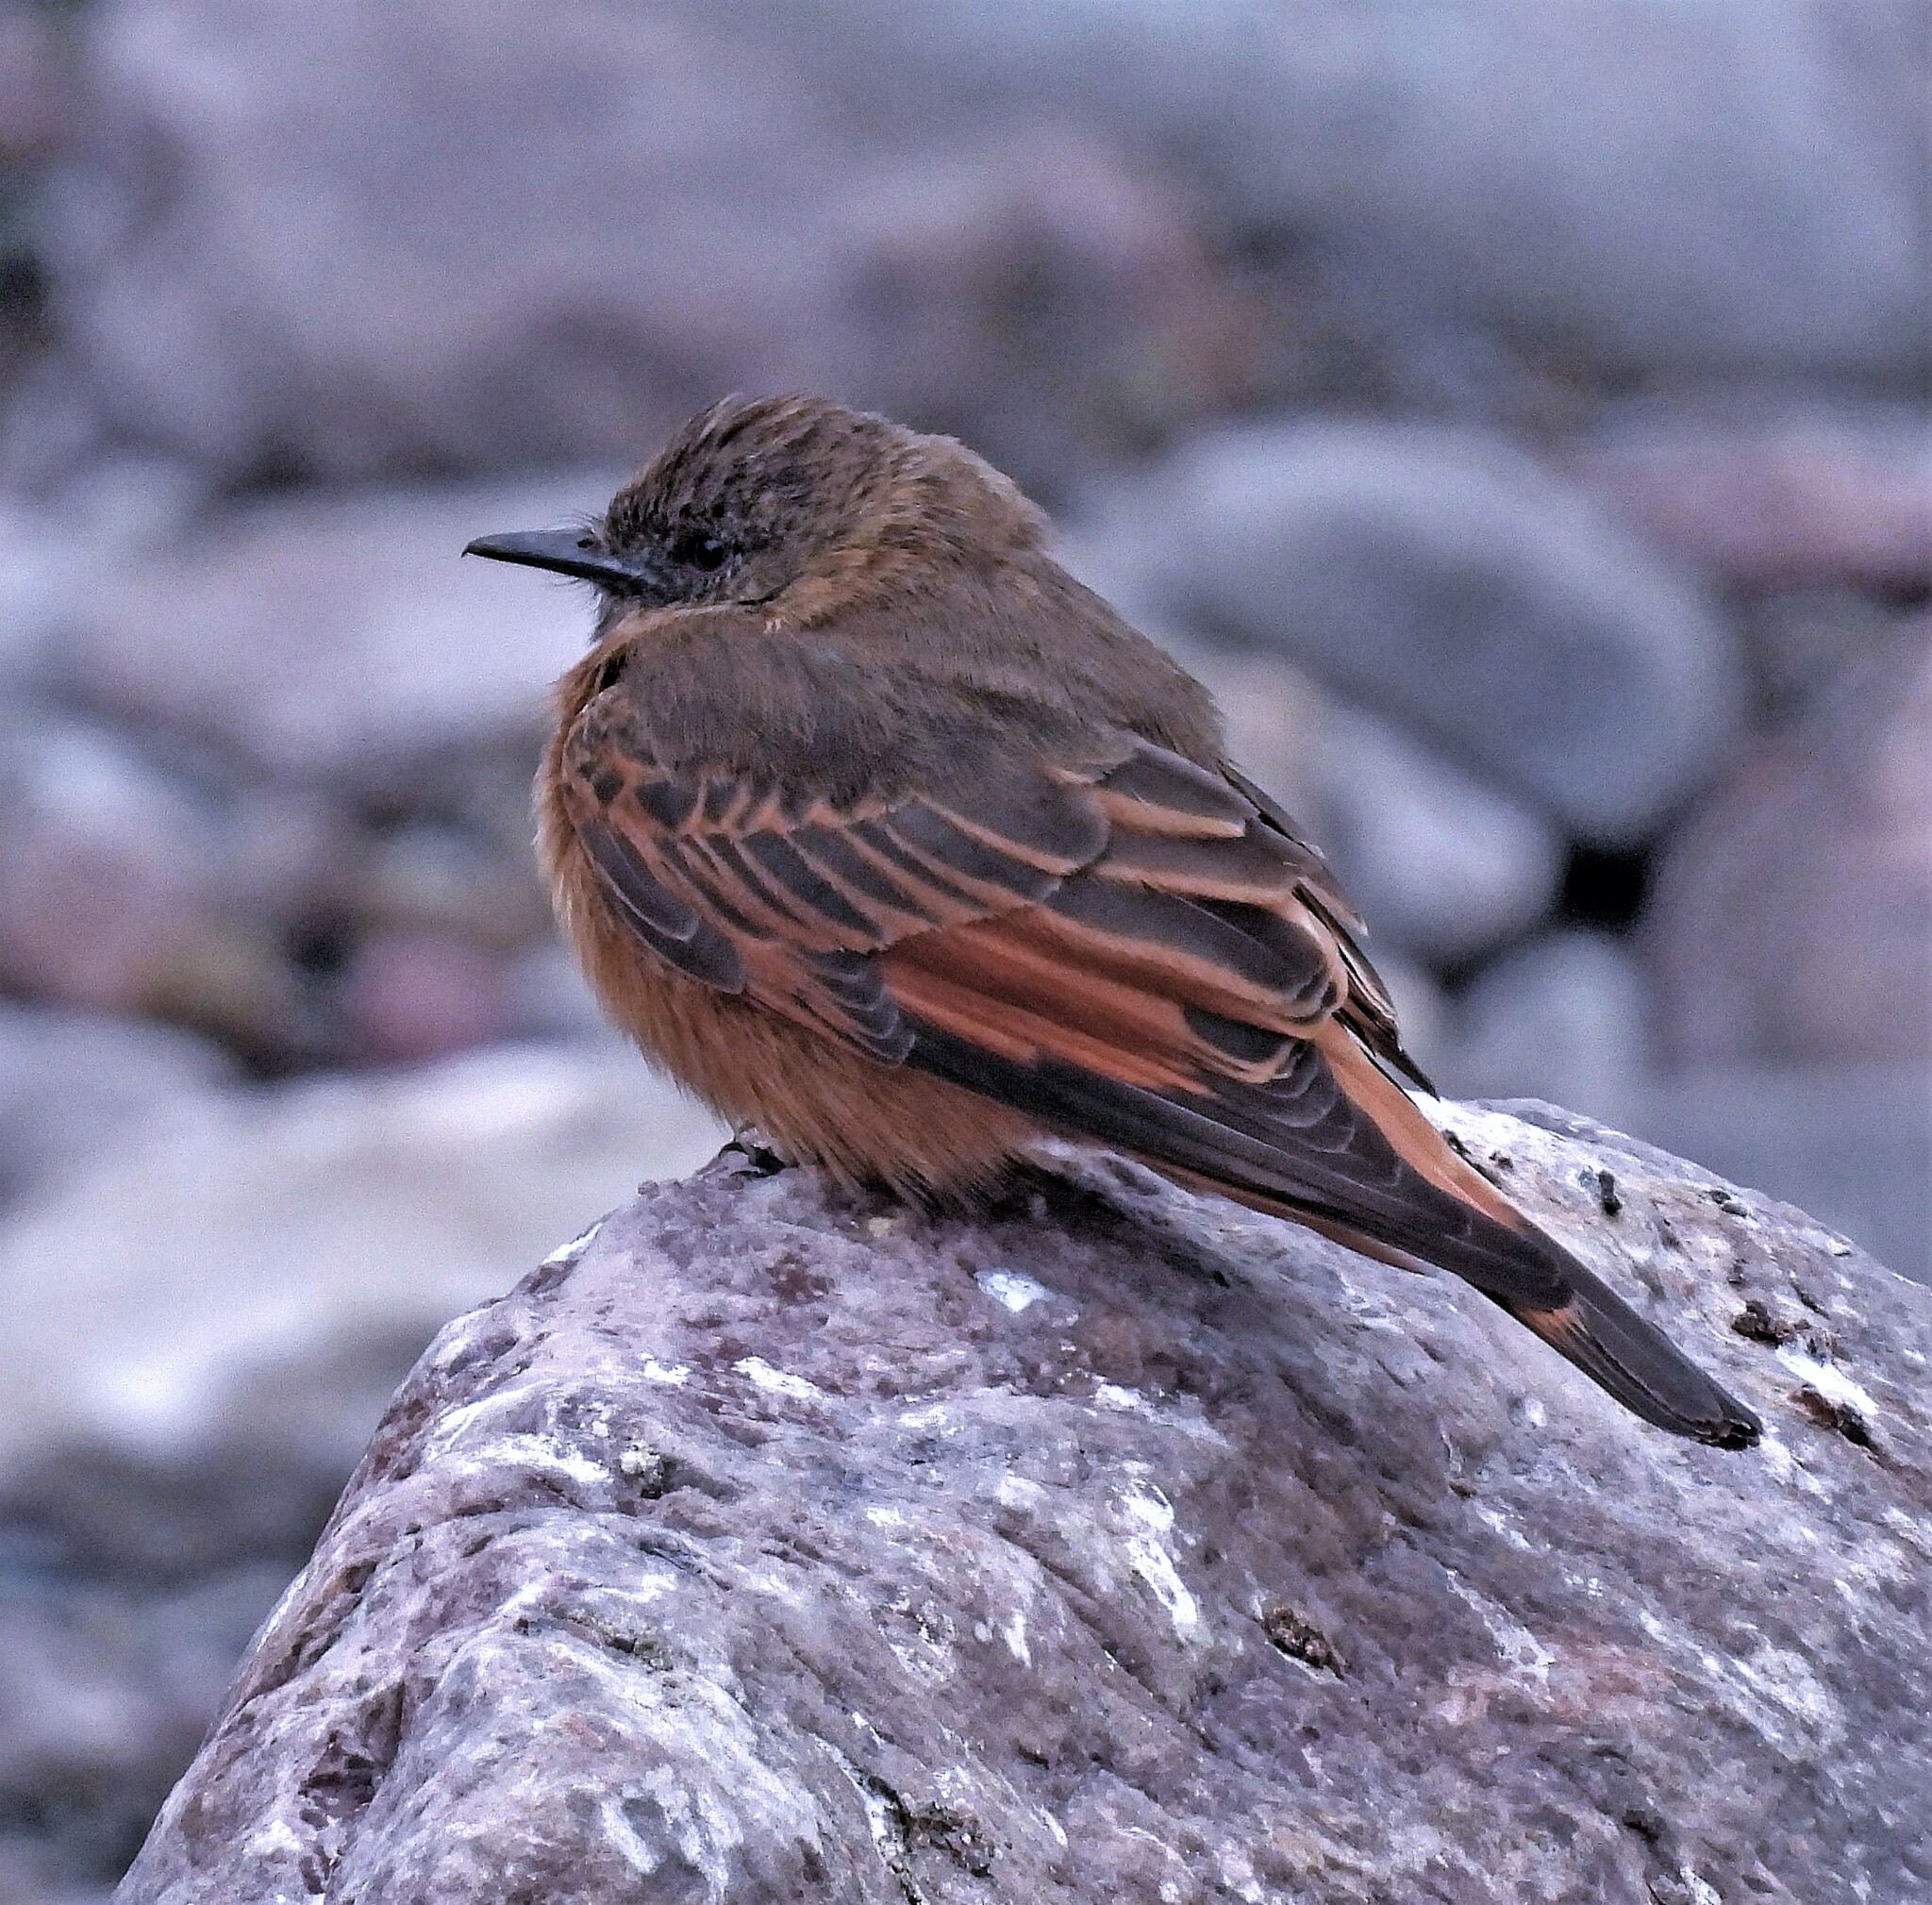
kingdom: Animalia
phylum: Chordata
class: Aves
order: Passeriformes
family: Tyrannidae
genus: Hirundinea
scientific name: Hirundinea ferruginea
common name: Cliff flycatcher
